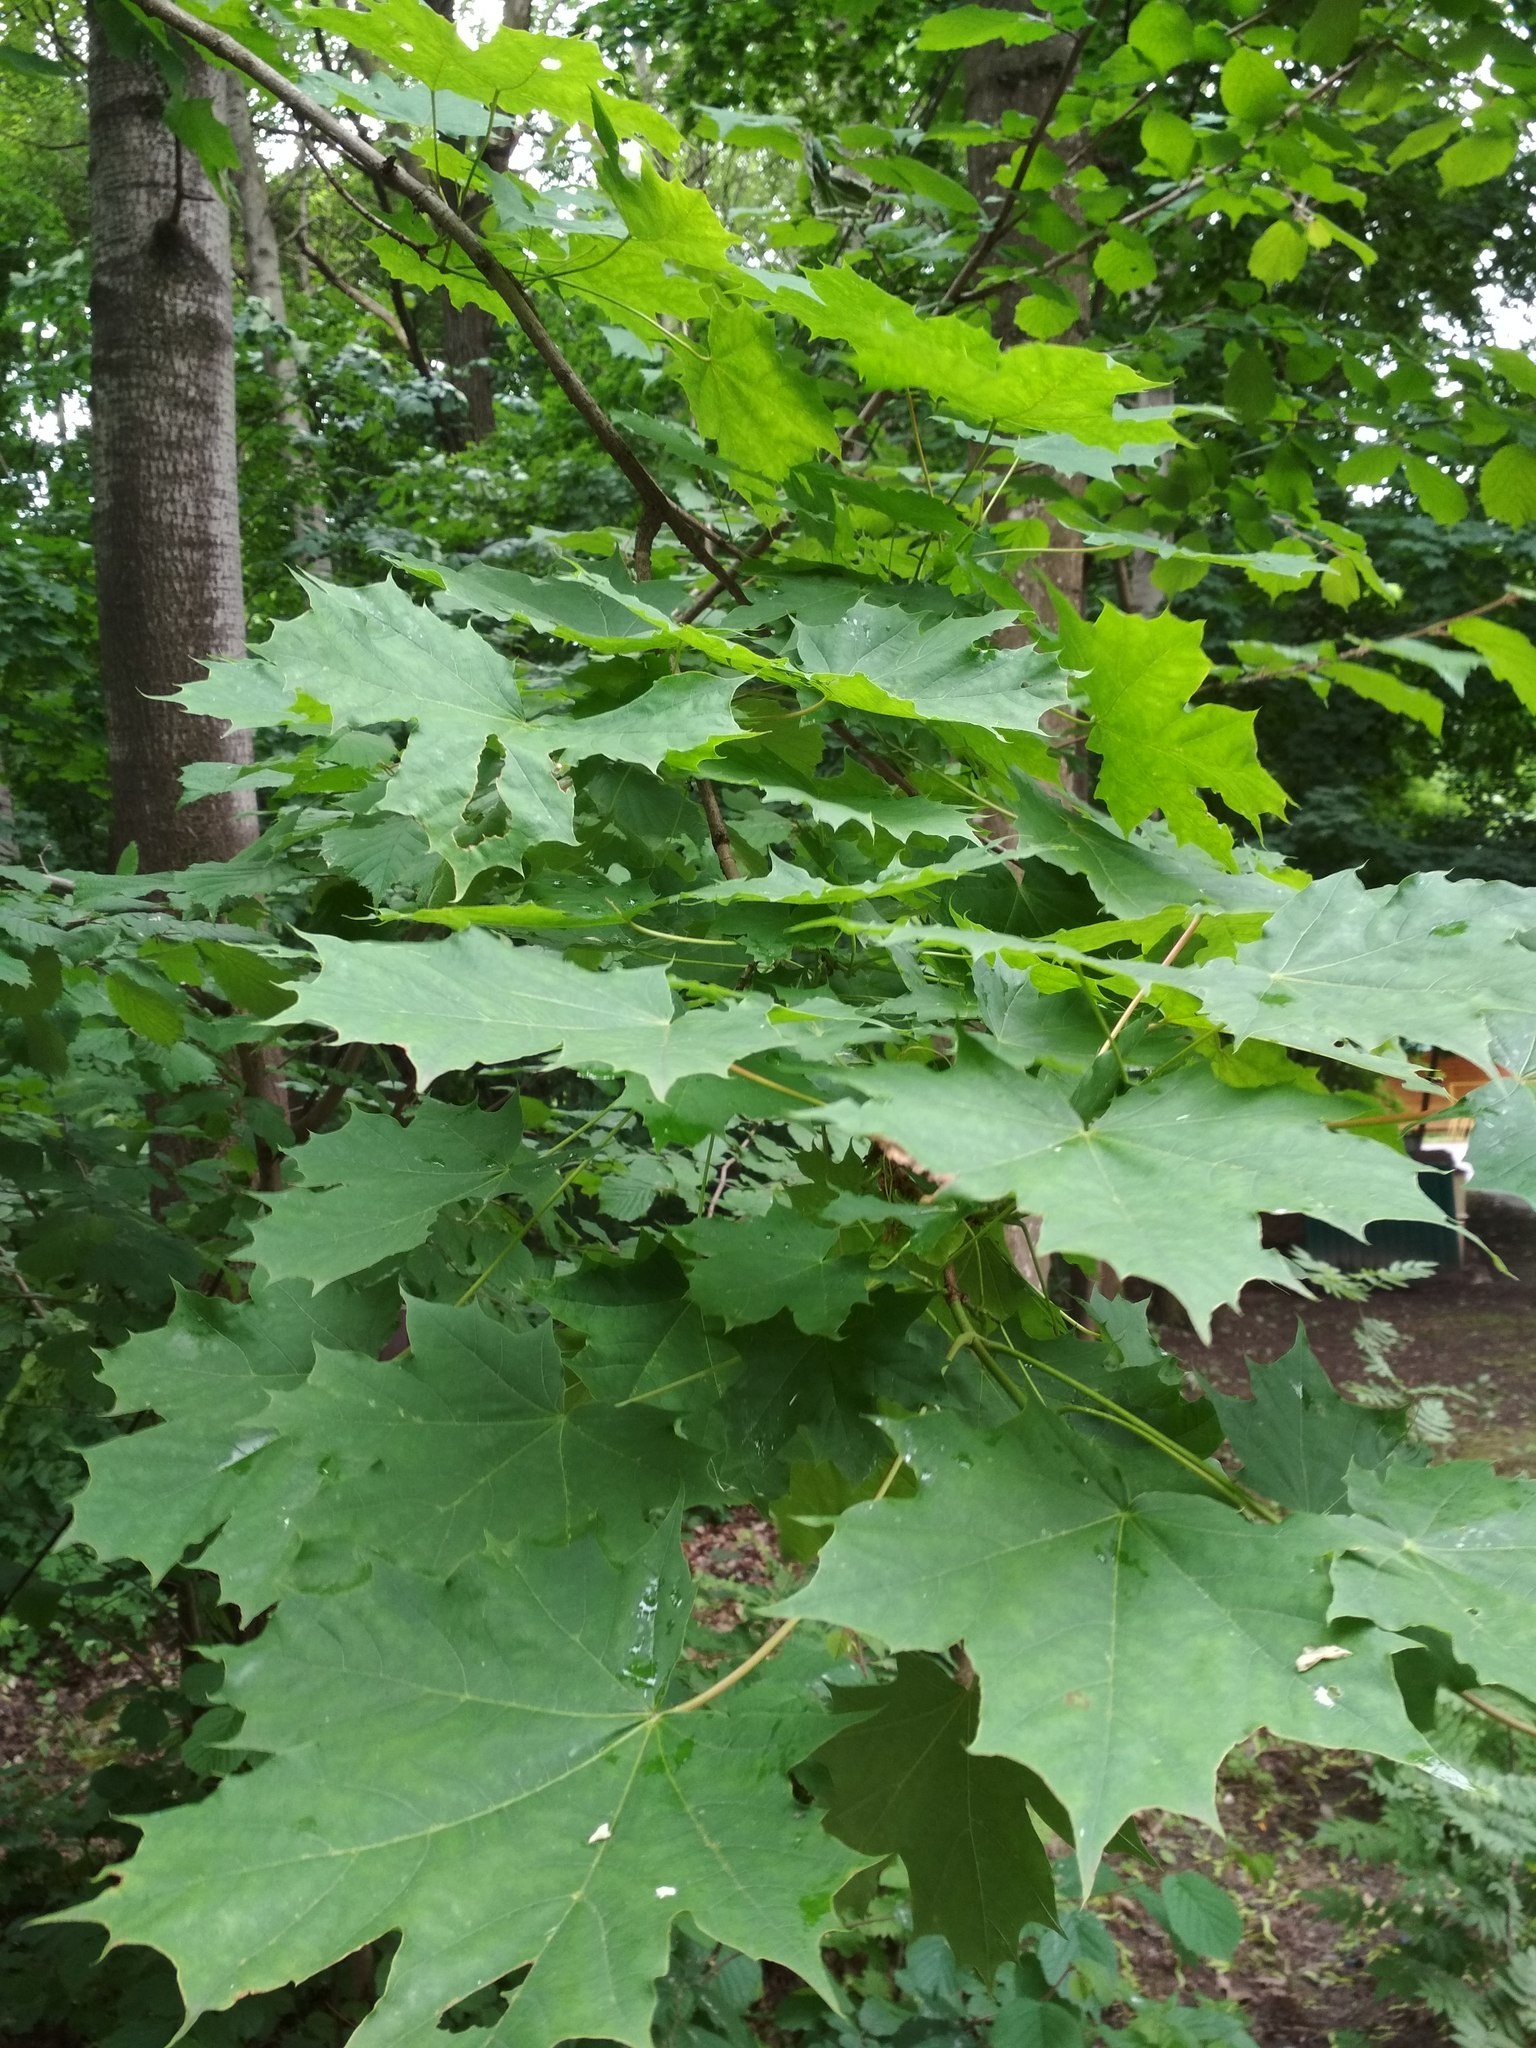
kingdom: Plantae
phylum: Tracheophyta
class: Magnoliopsida
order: Sapindales
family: Sapindaceae
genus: Acer
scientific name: Acer platanoides
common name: Norway maple
